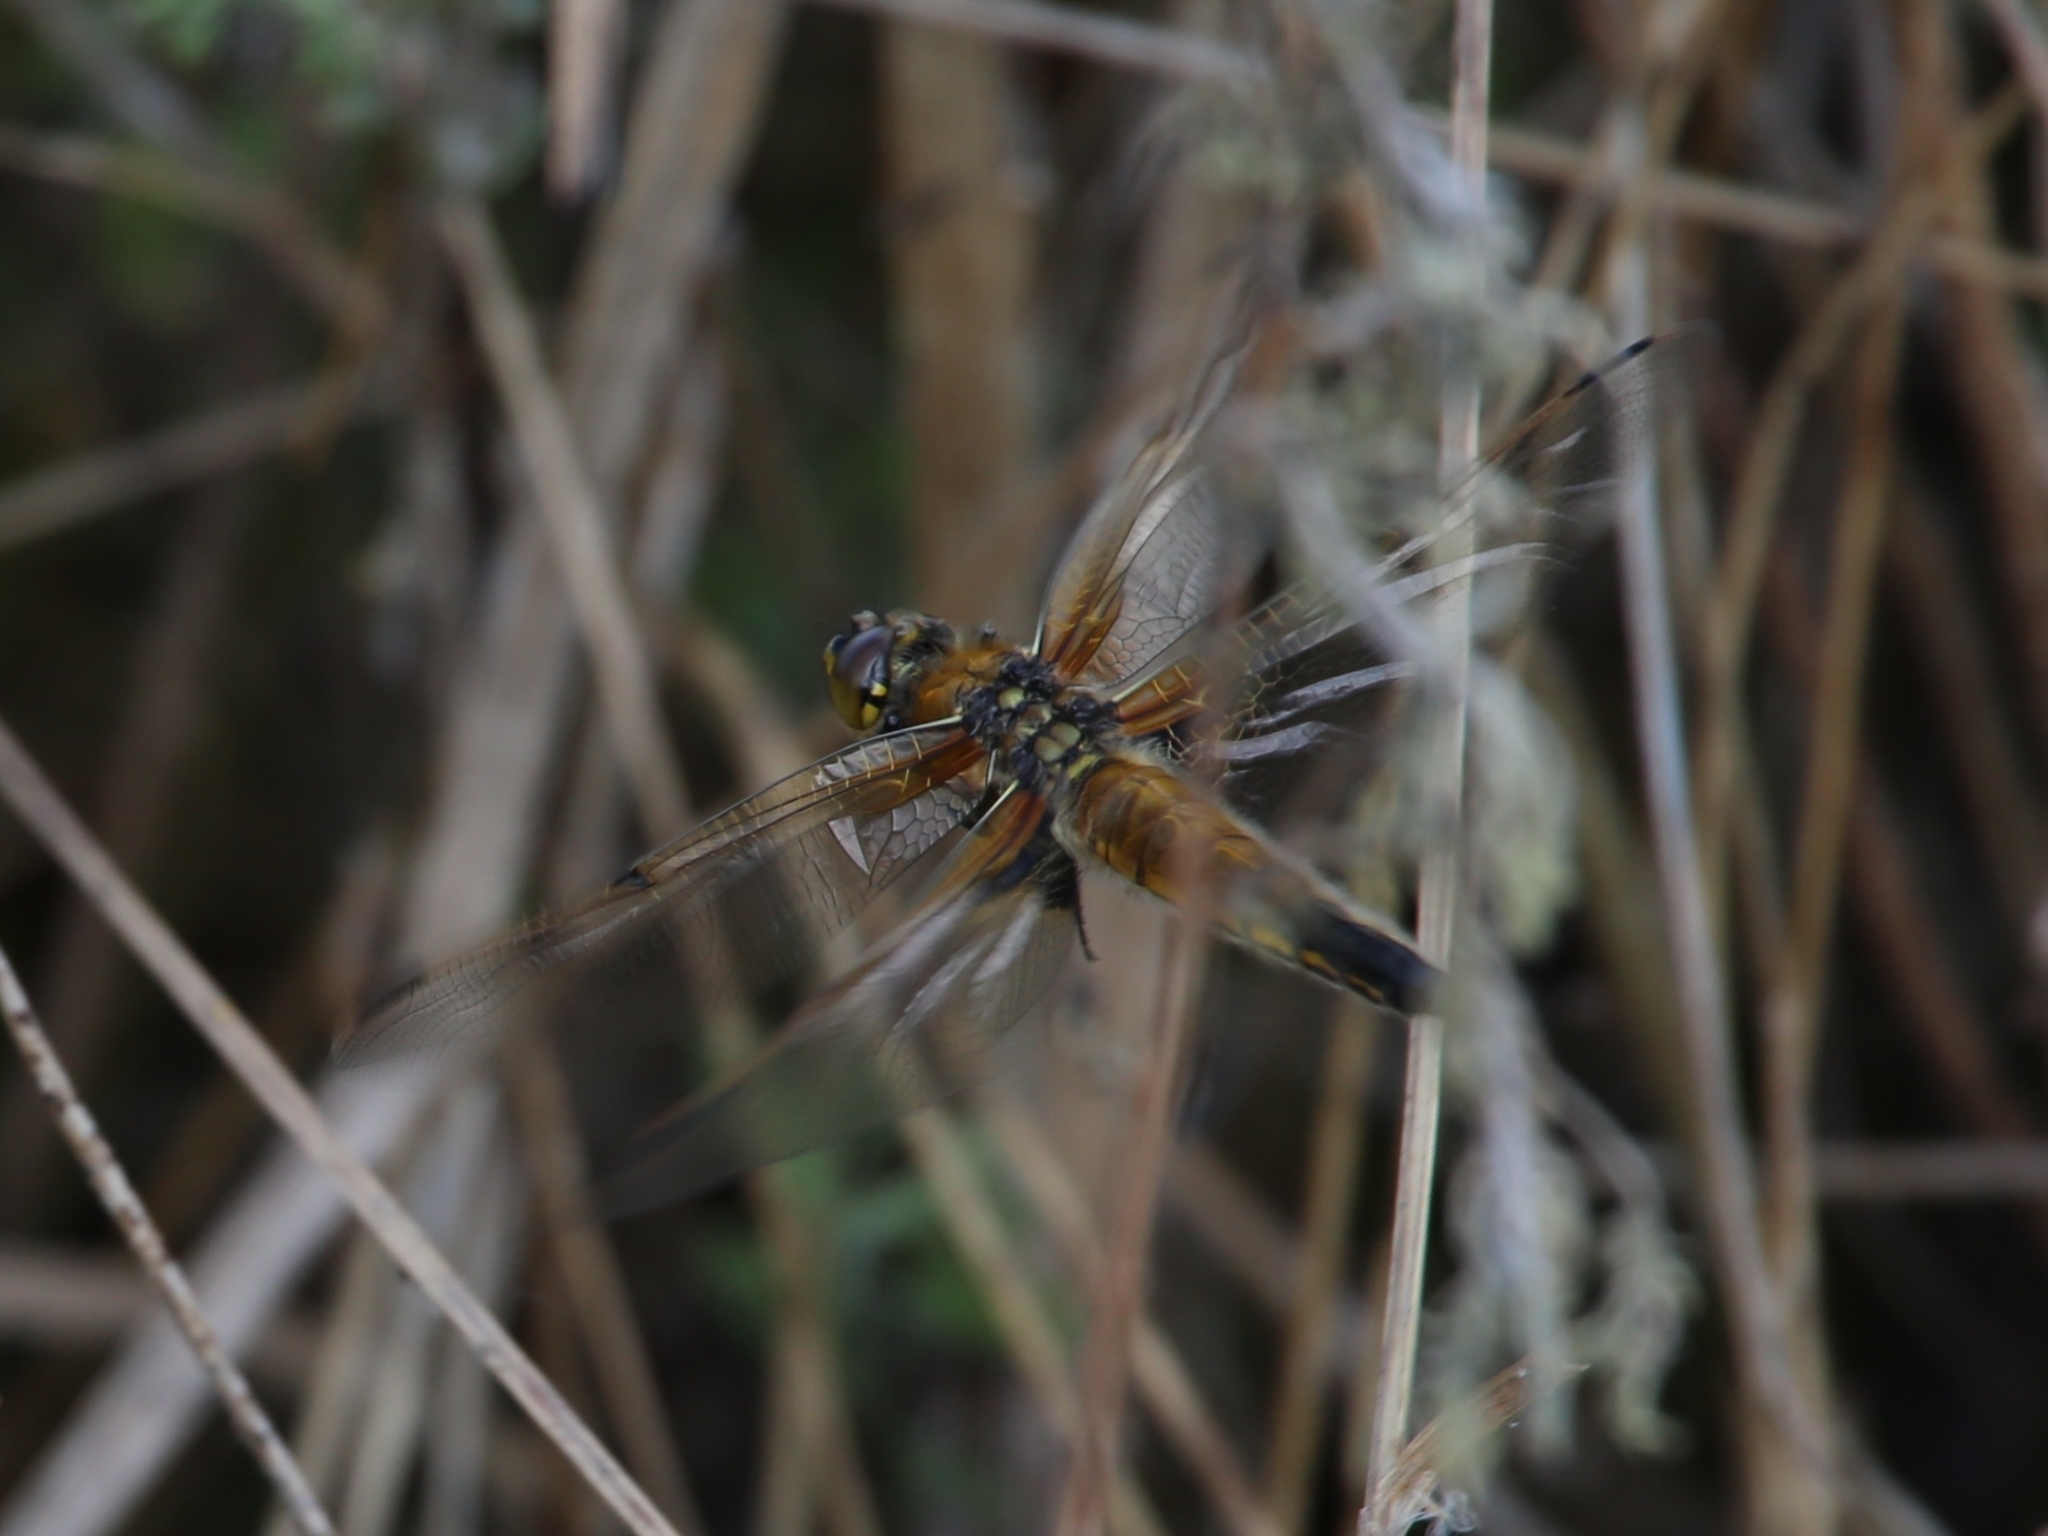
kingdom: Animalia
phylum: Arthropoda
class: Insecta
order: Odonata
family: Libellulidae
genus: Libellula
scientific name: Libellula quadrimaculata
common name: Four-spotted chaser
